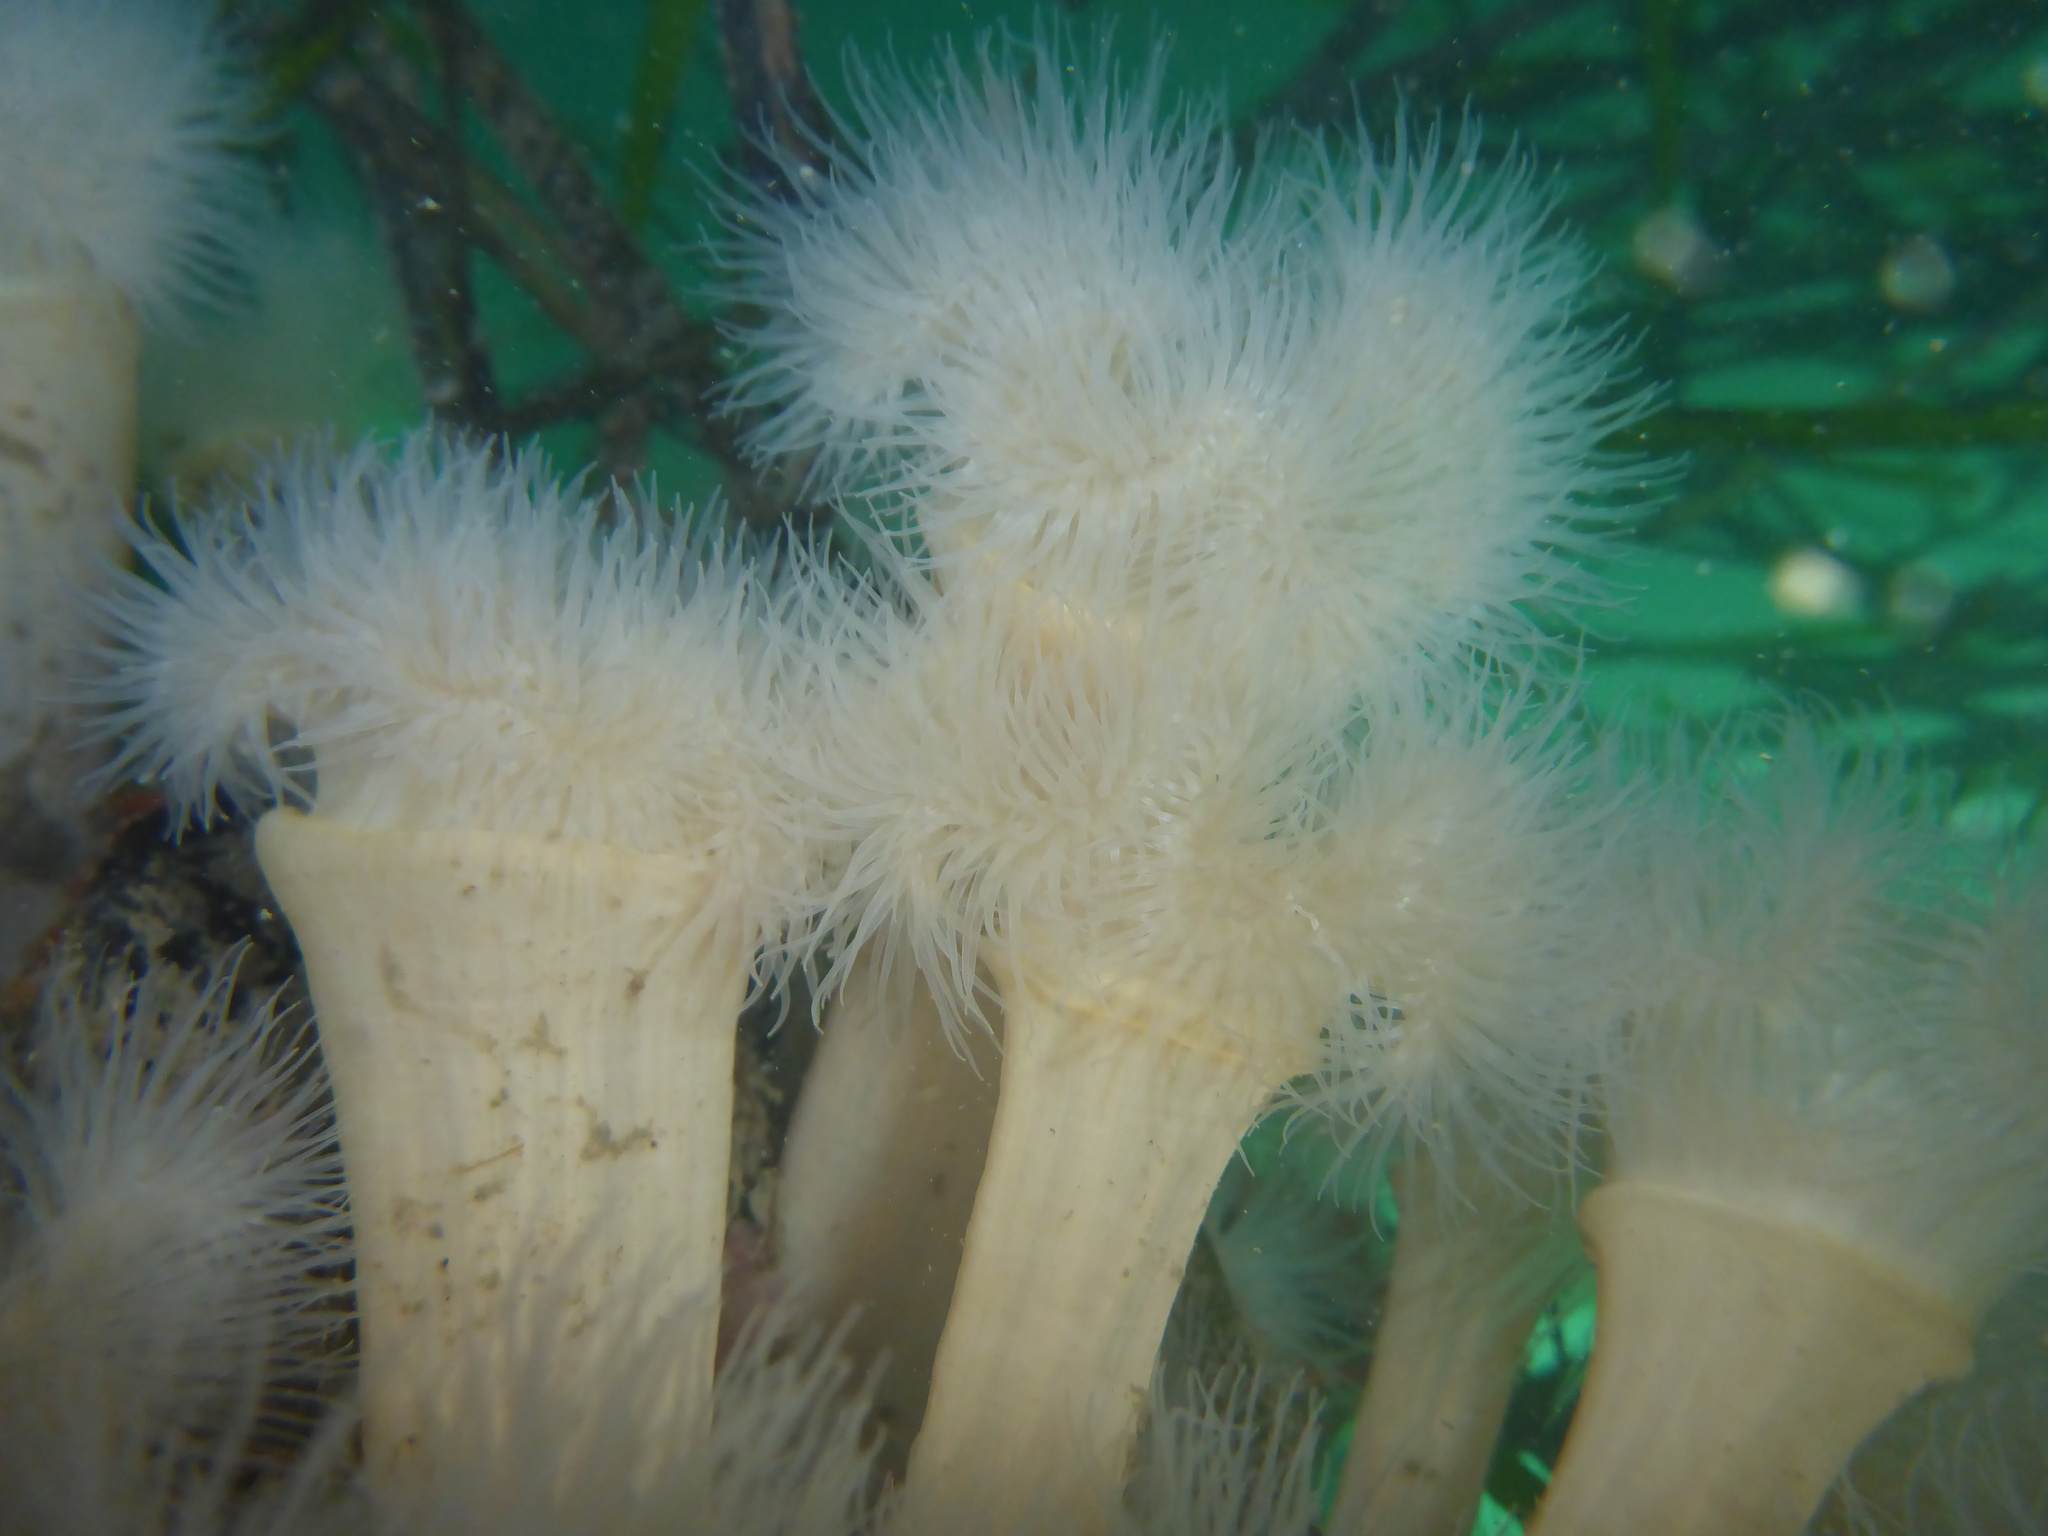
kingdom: Animalia
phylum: Cnidaria
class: Anthozoa
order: Actiniaria
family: Metridiidae
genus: Metridium
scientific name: Metridium senile
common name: Clonal plumose anemone
